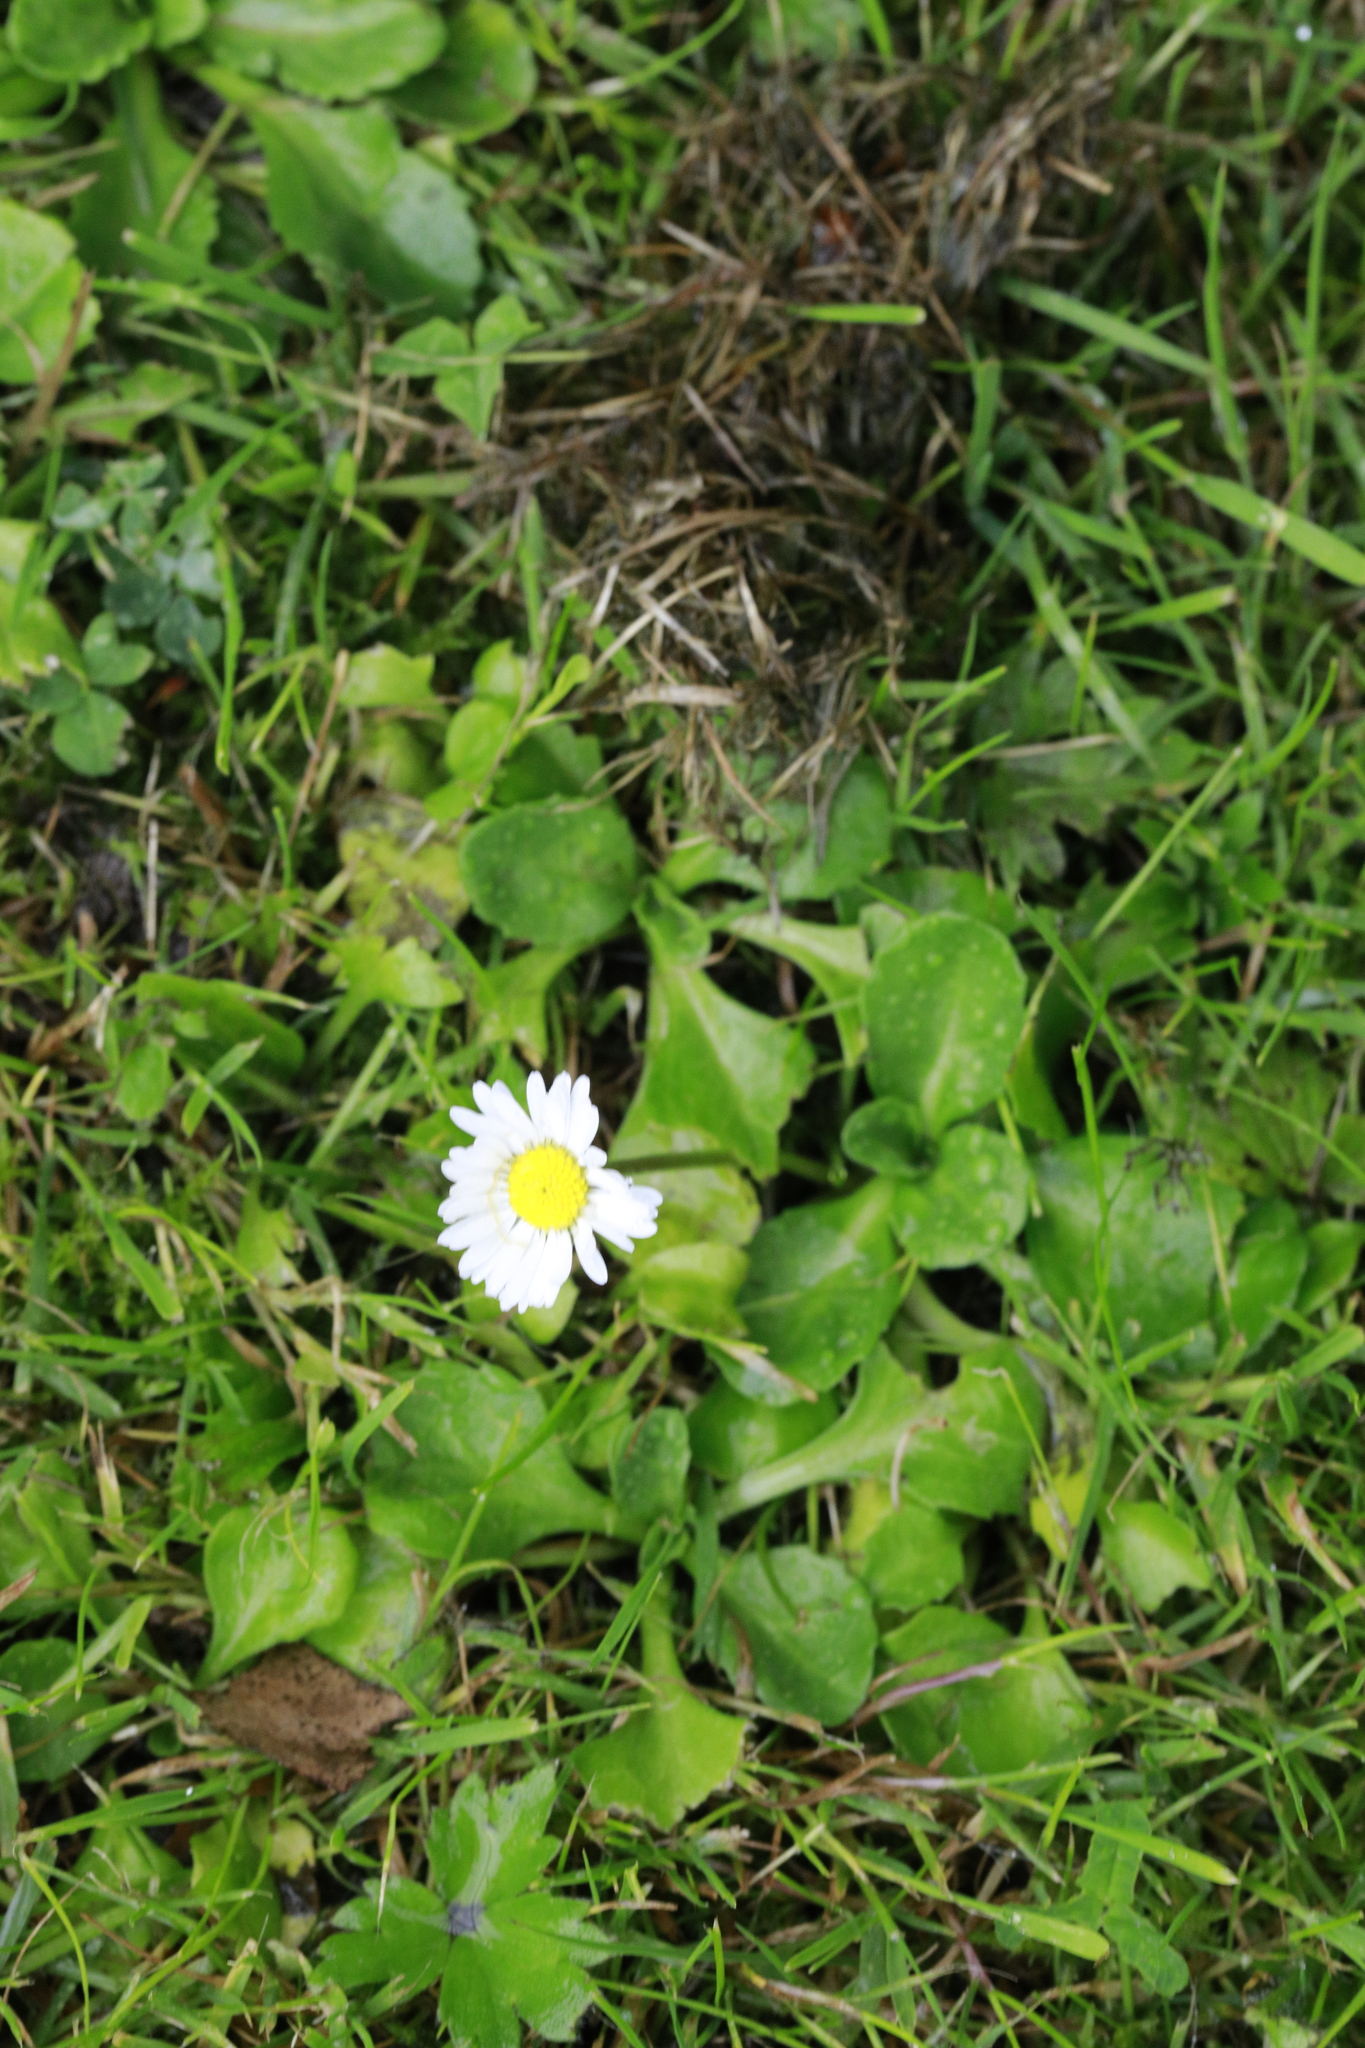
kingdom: Plantae
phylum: Tracheophyta
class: Magnoliopsida
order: Asterales
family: Asteraceae
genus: Bellis
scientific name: Bellis perennis
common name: Lawndaisy
